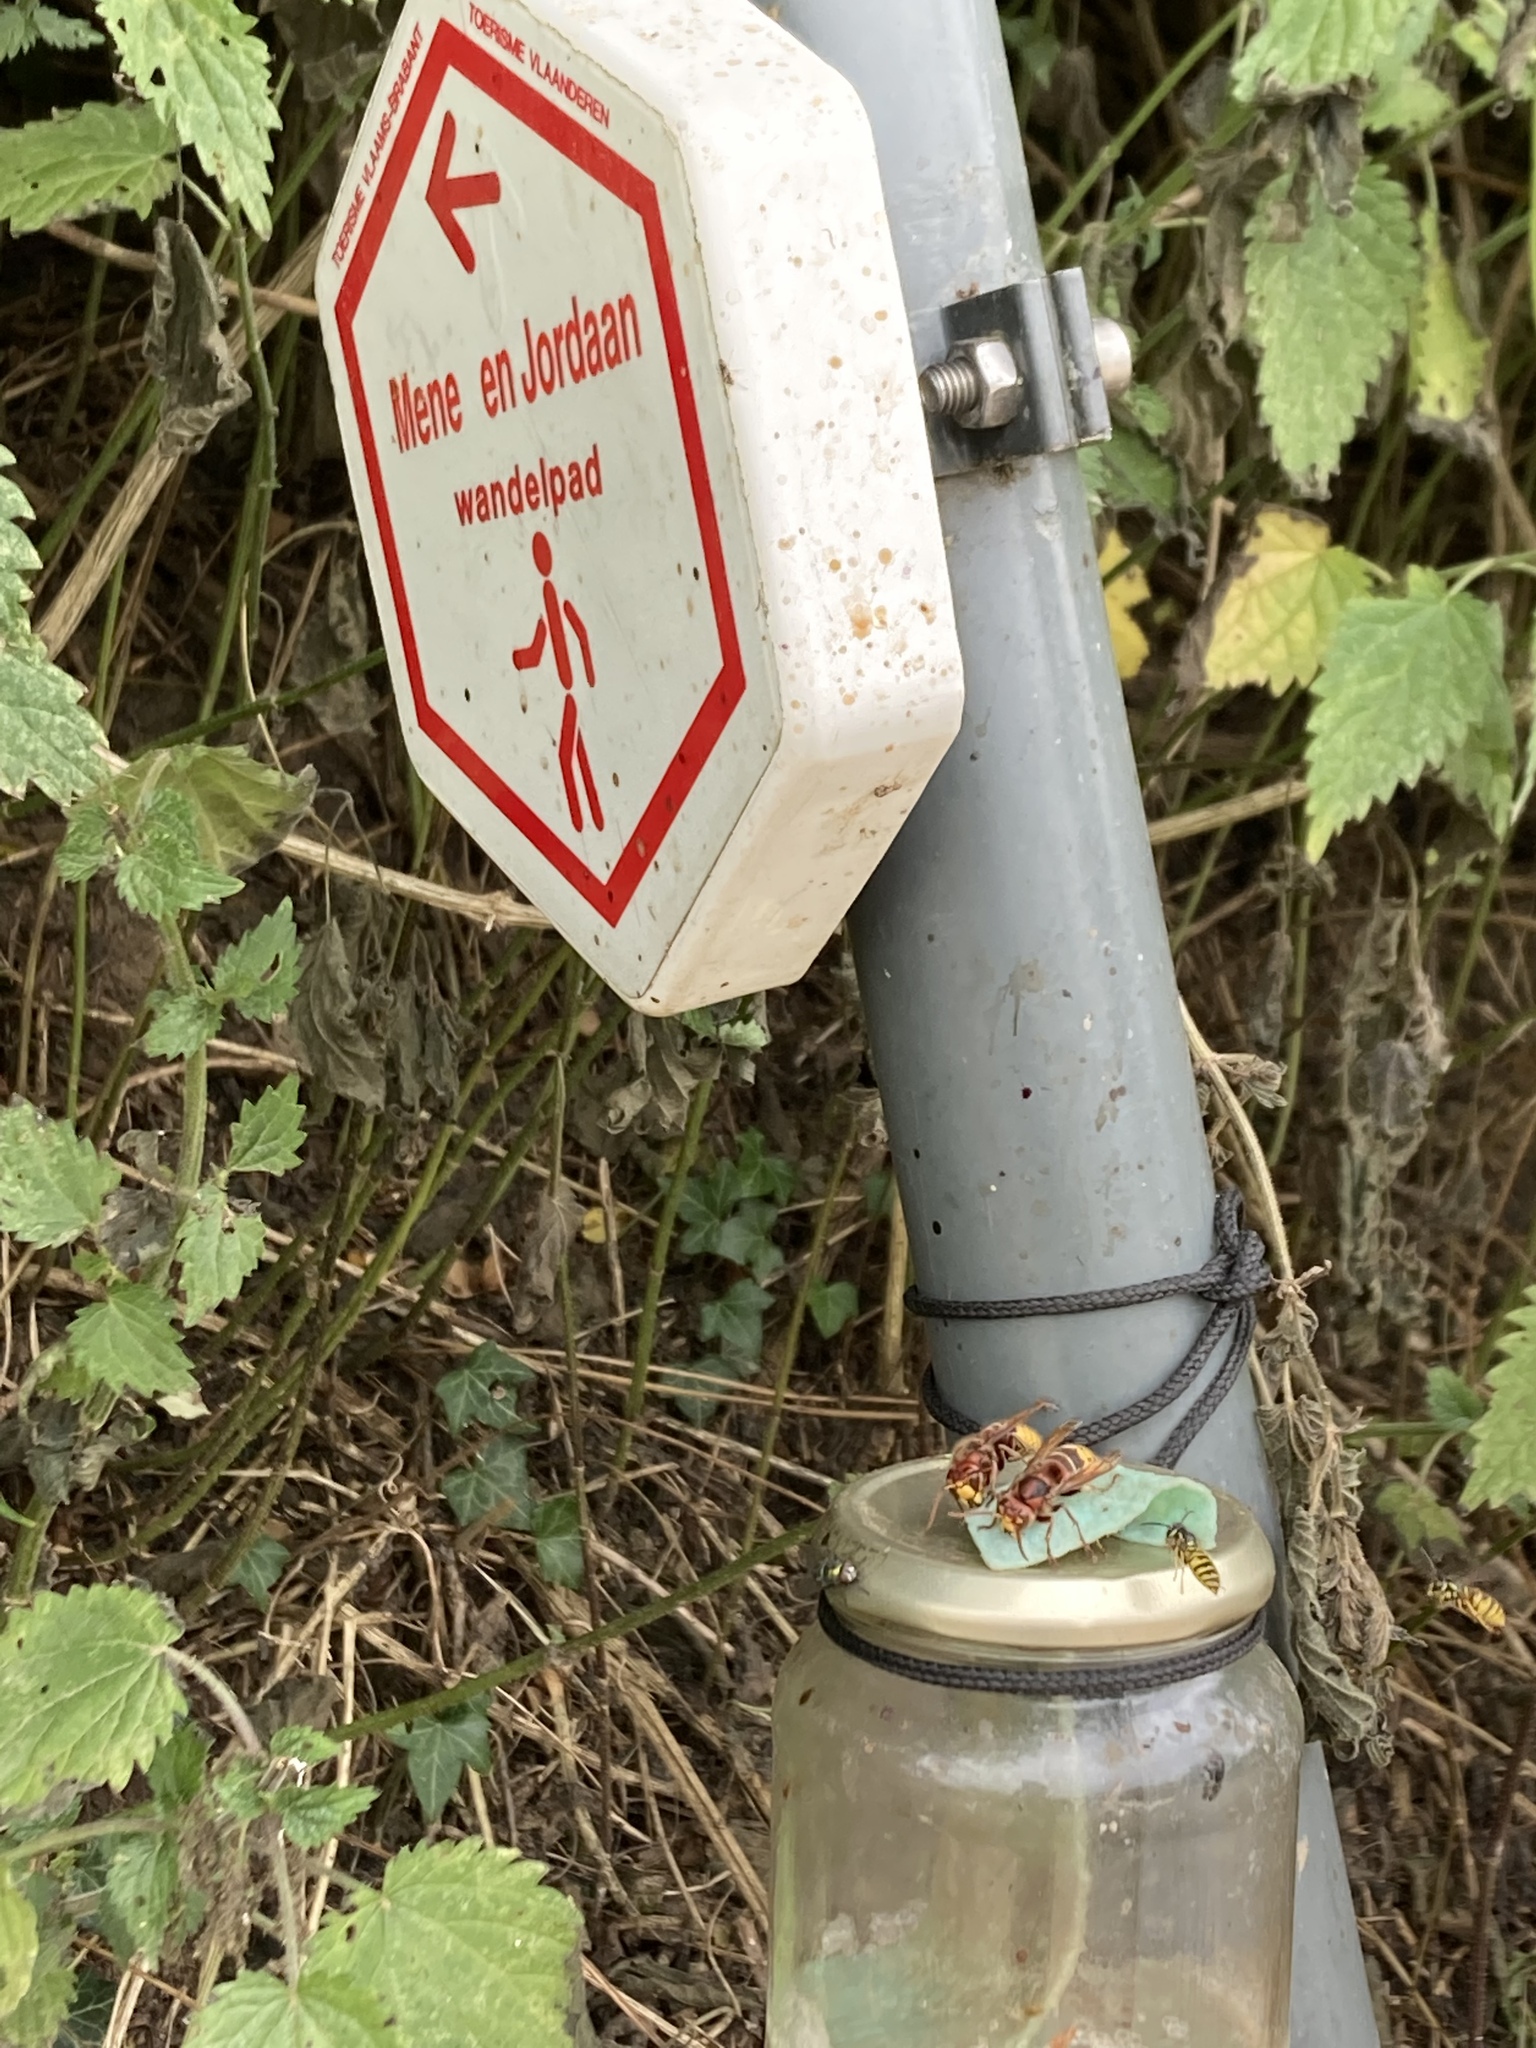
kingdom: Animalia
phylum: Arthropoda
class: Insecta
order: Hymenoptera
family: Vespidae
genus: Vespa
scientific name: Vespa crabro
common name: Hornet
